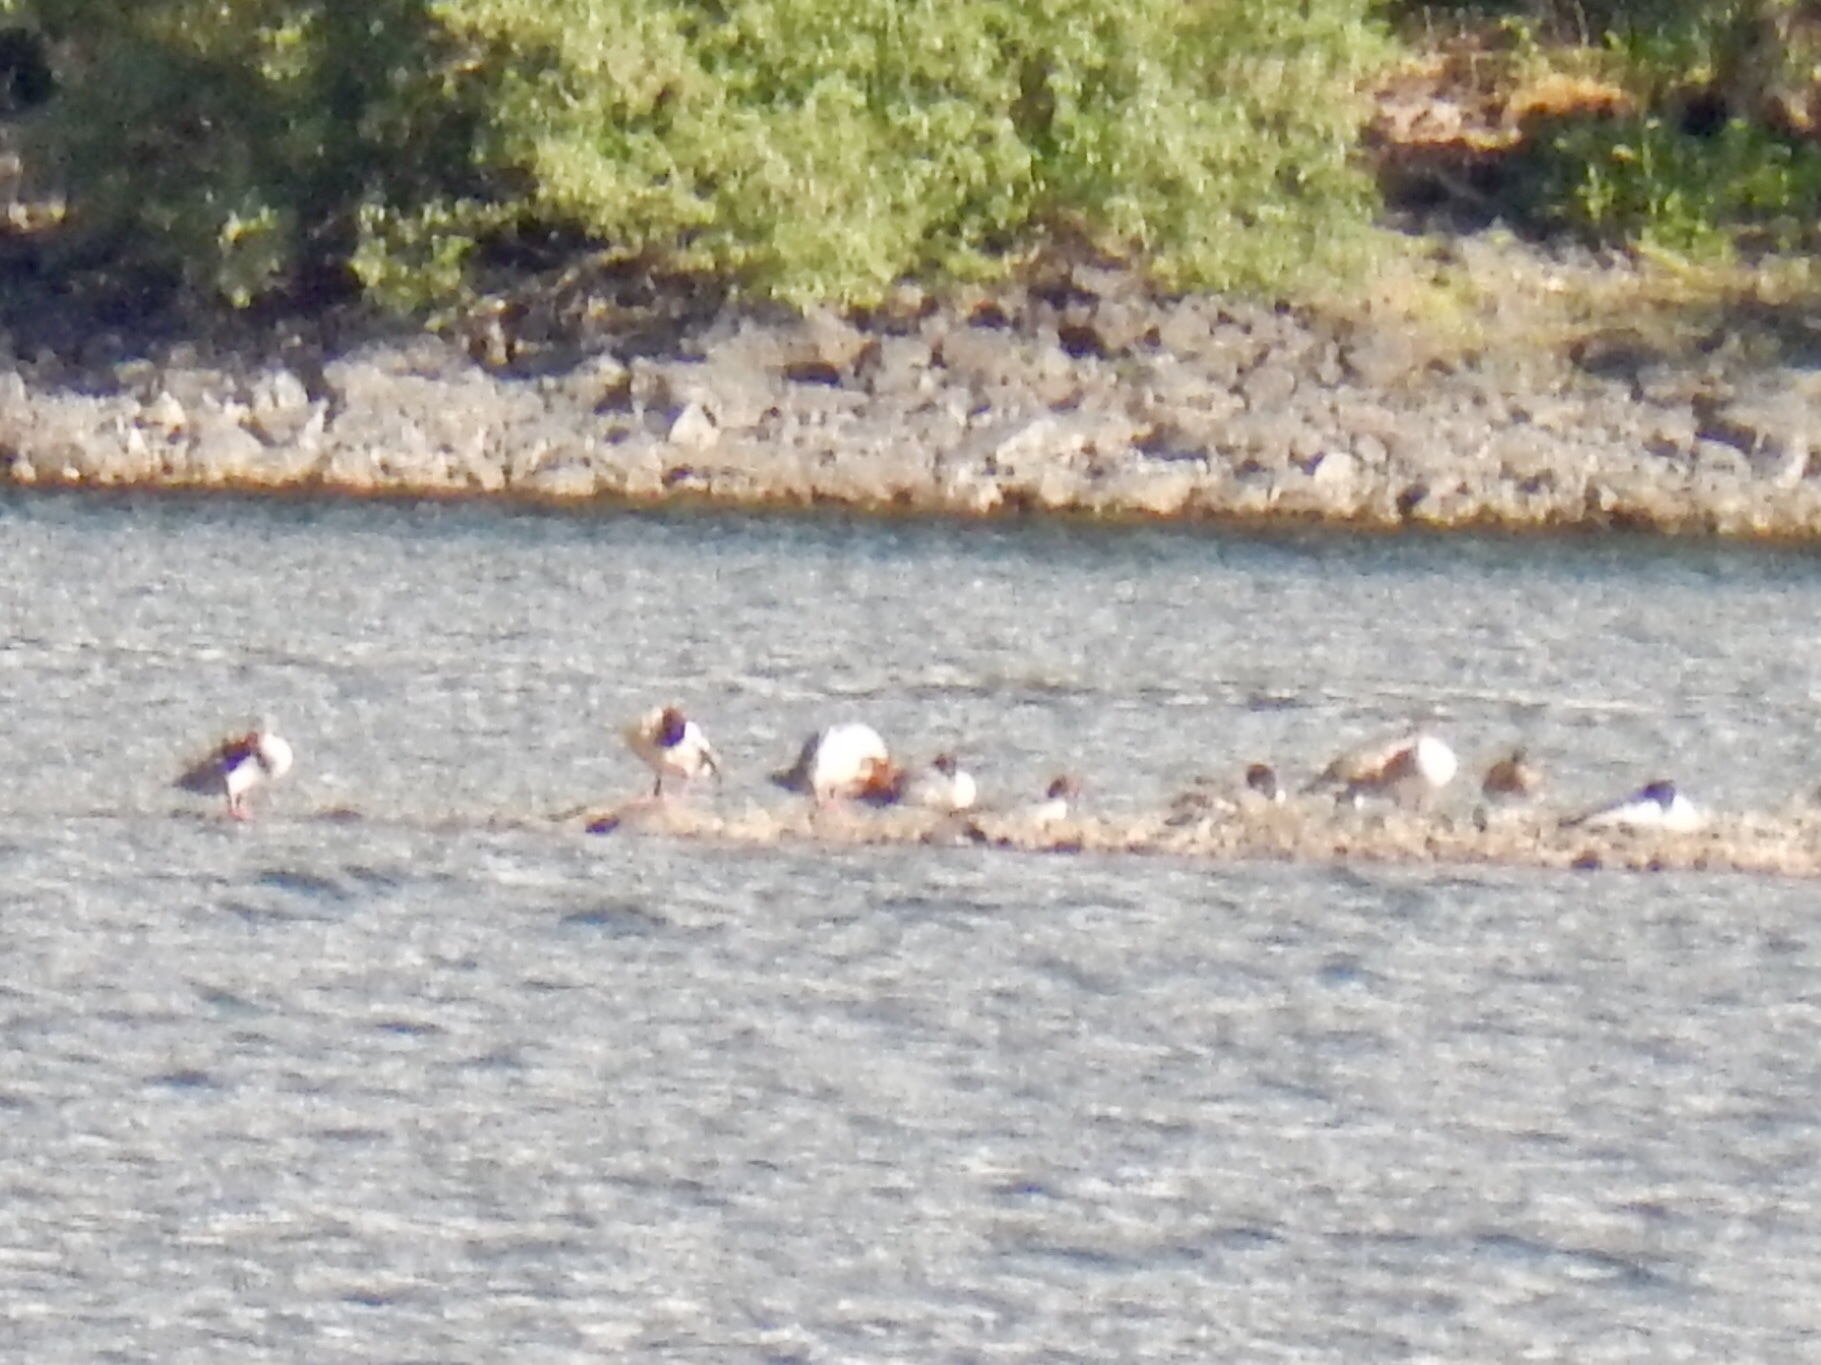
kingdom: Animalia
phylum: Chordata
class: Aves
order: Anseriformes
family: Anatidae
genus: Mergus
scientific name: Mergus merganser
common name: Common merganser
